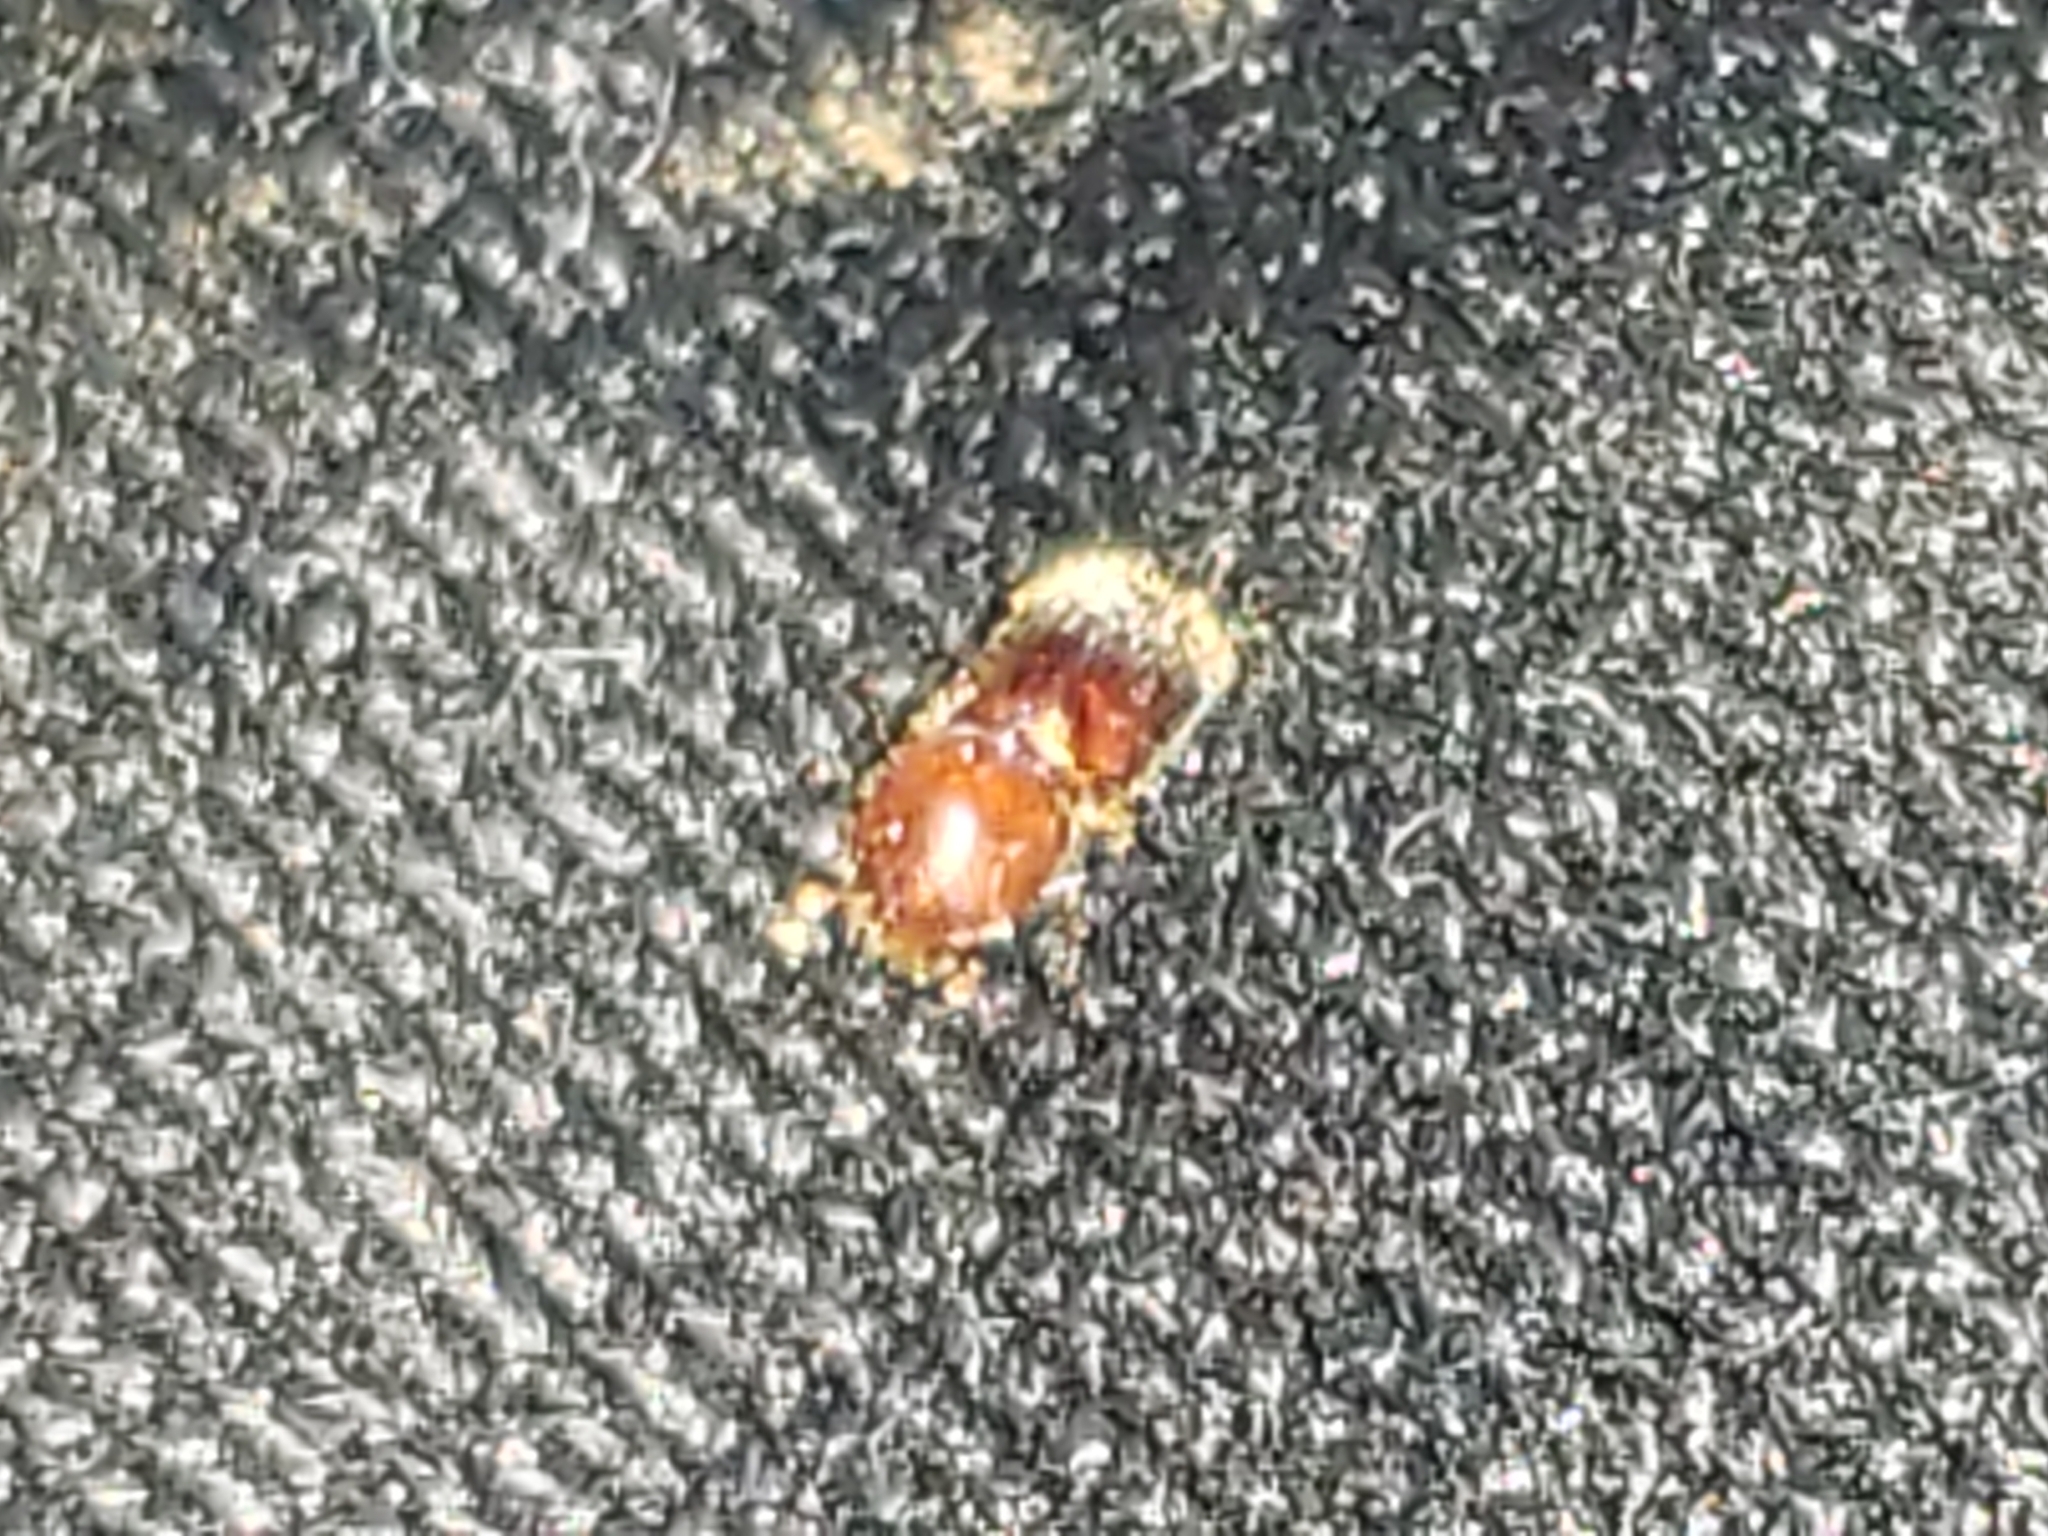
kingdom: Animalia
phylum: Arthropoda
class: Insecta
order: Coleoptera
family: Curculionidae
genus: Xylosandrus
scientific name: Xylosandrus crassiusculus
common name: Granulate ambrosia beetle
